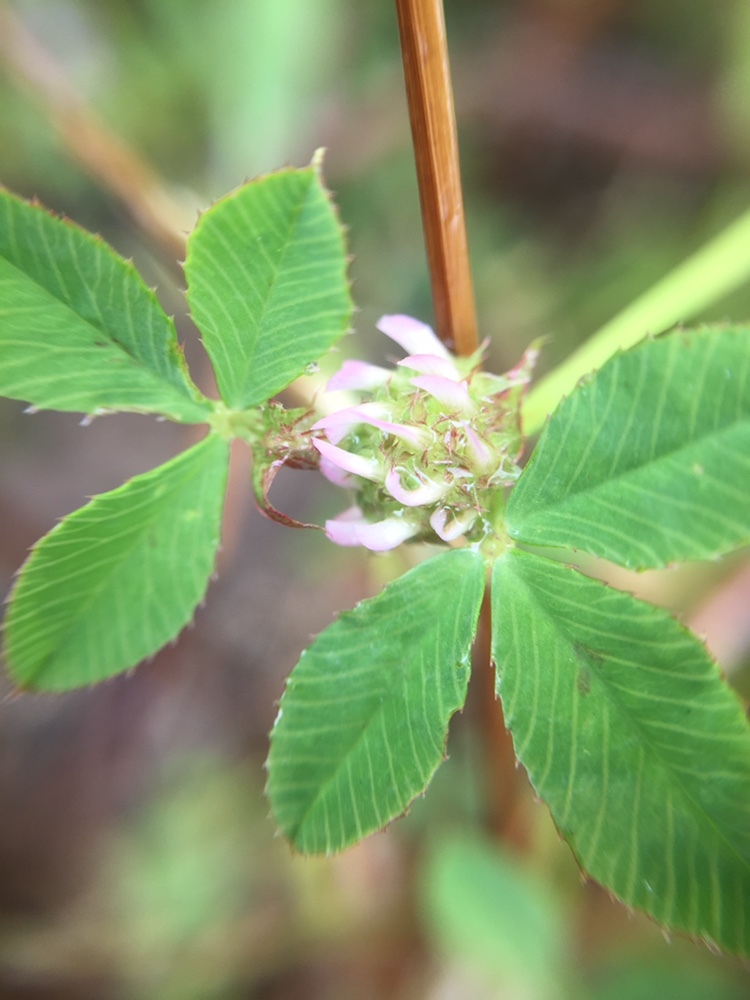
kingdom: Plantae
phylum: Tracheophyta
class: Magnoliopsida
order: Fabales
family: Fabaceae
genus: Trifolium
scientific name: Trifolium glomeratum
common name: Clustered clover
